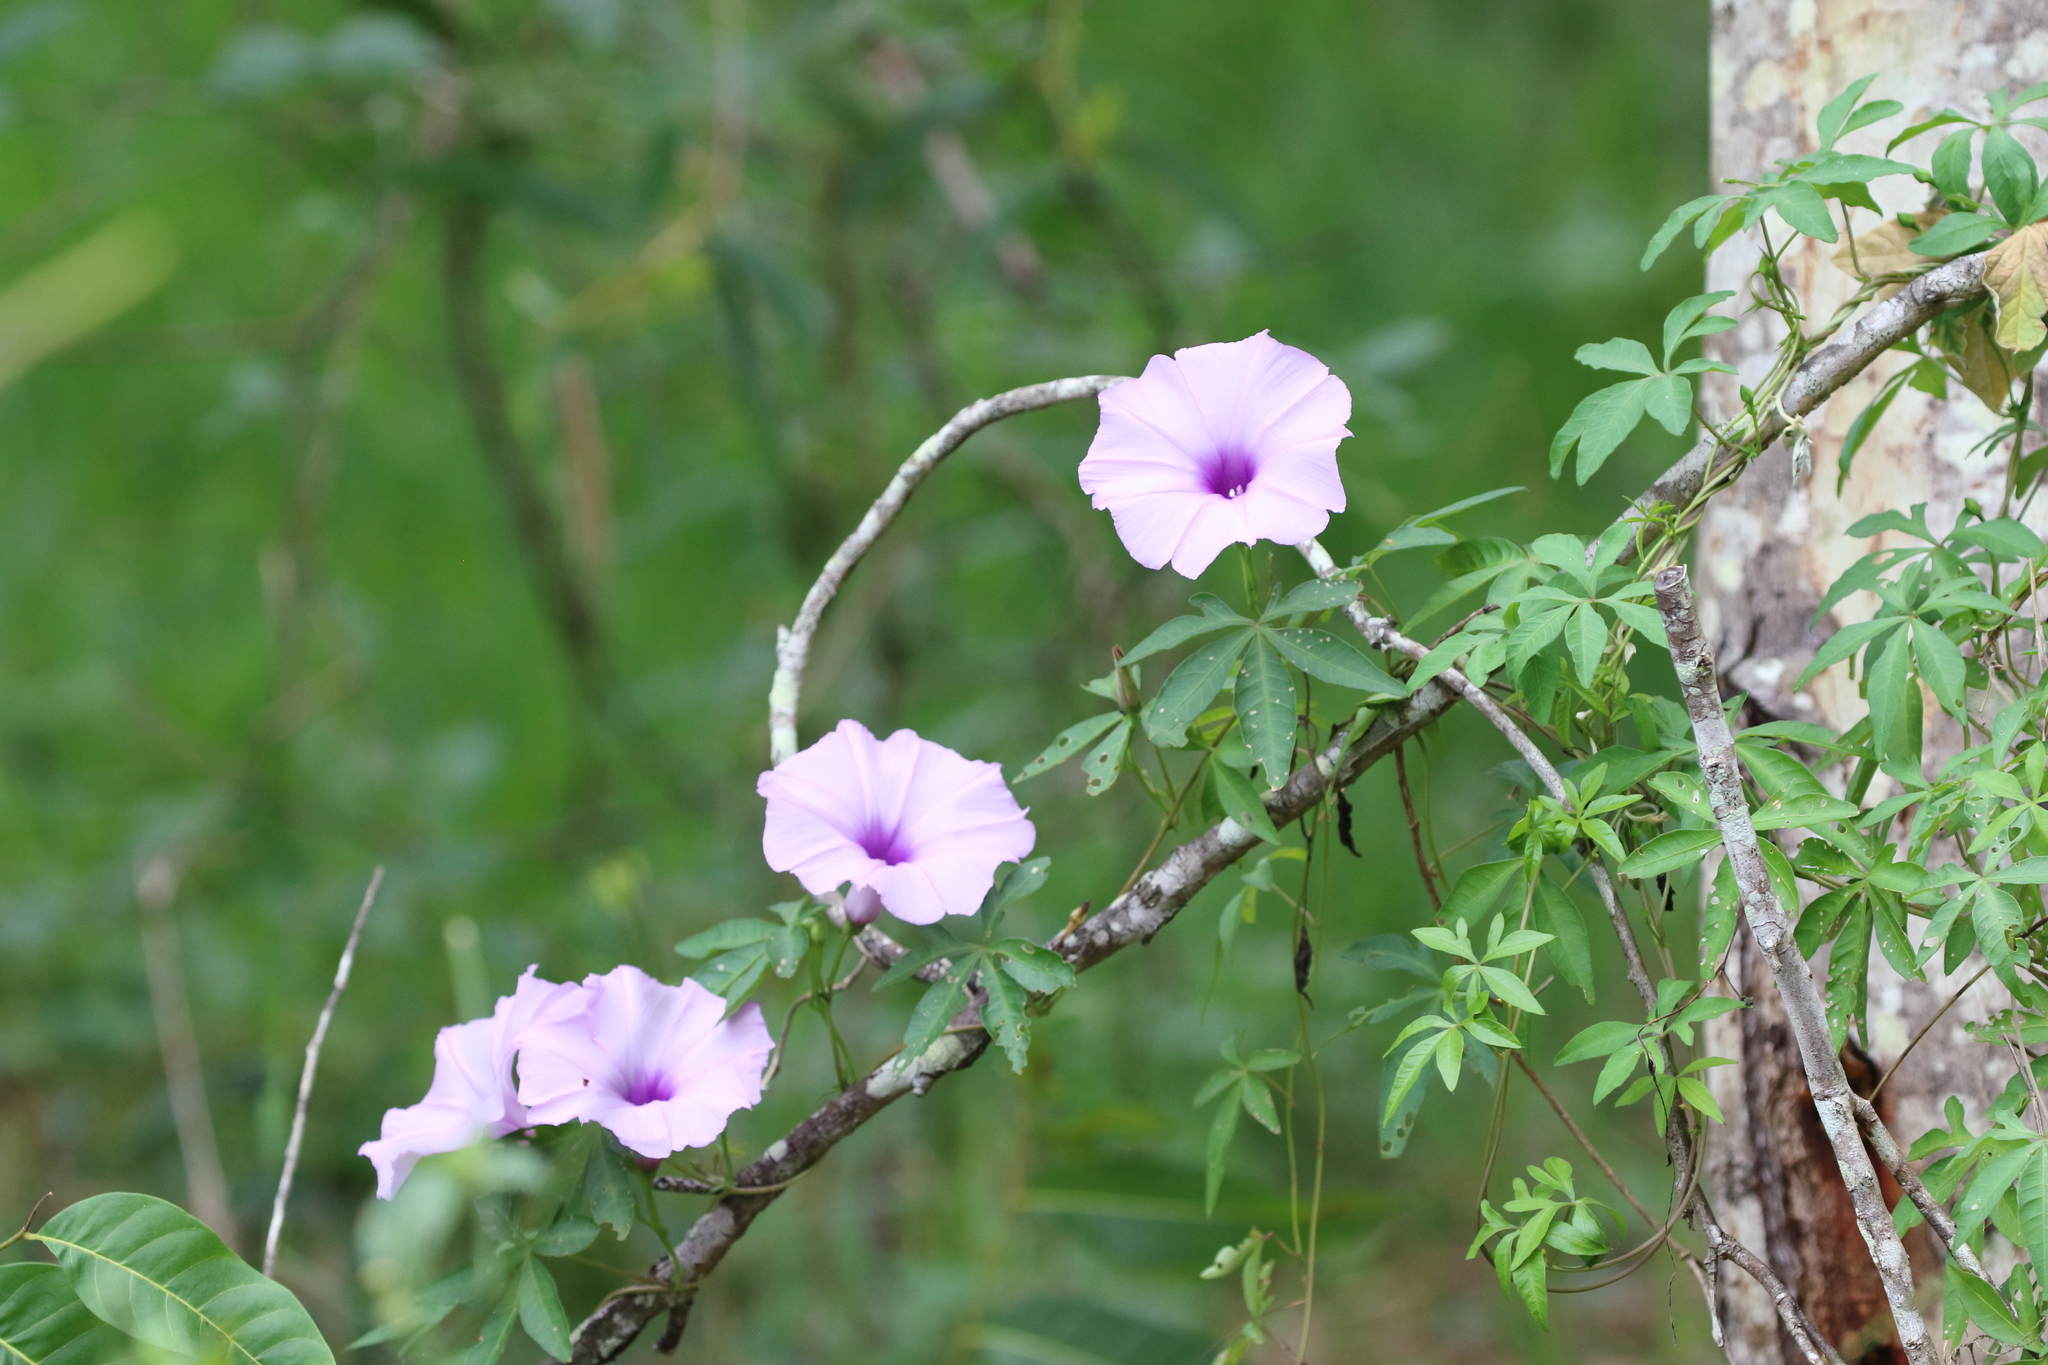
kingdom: Plantae
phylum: Tracheophyta
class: Magnoliopsida
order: Solanales
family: Convolvulaceae
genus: Ipomoea
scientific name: Ipomoea cairica
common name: Mile a minute vine
